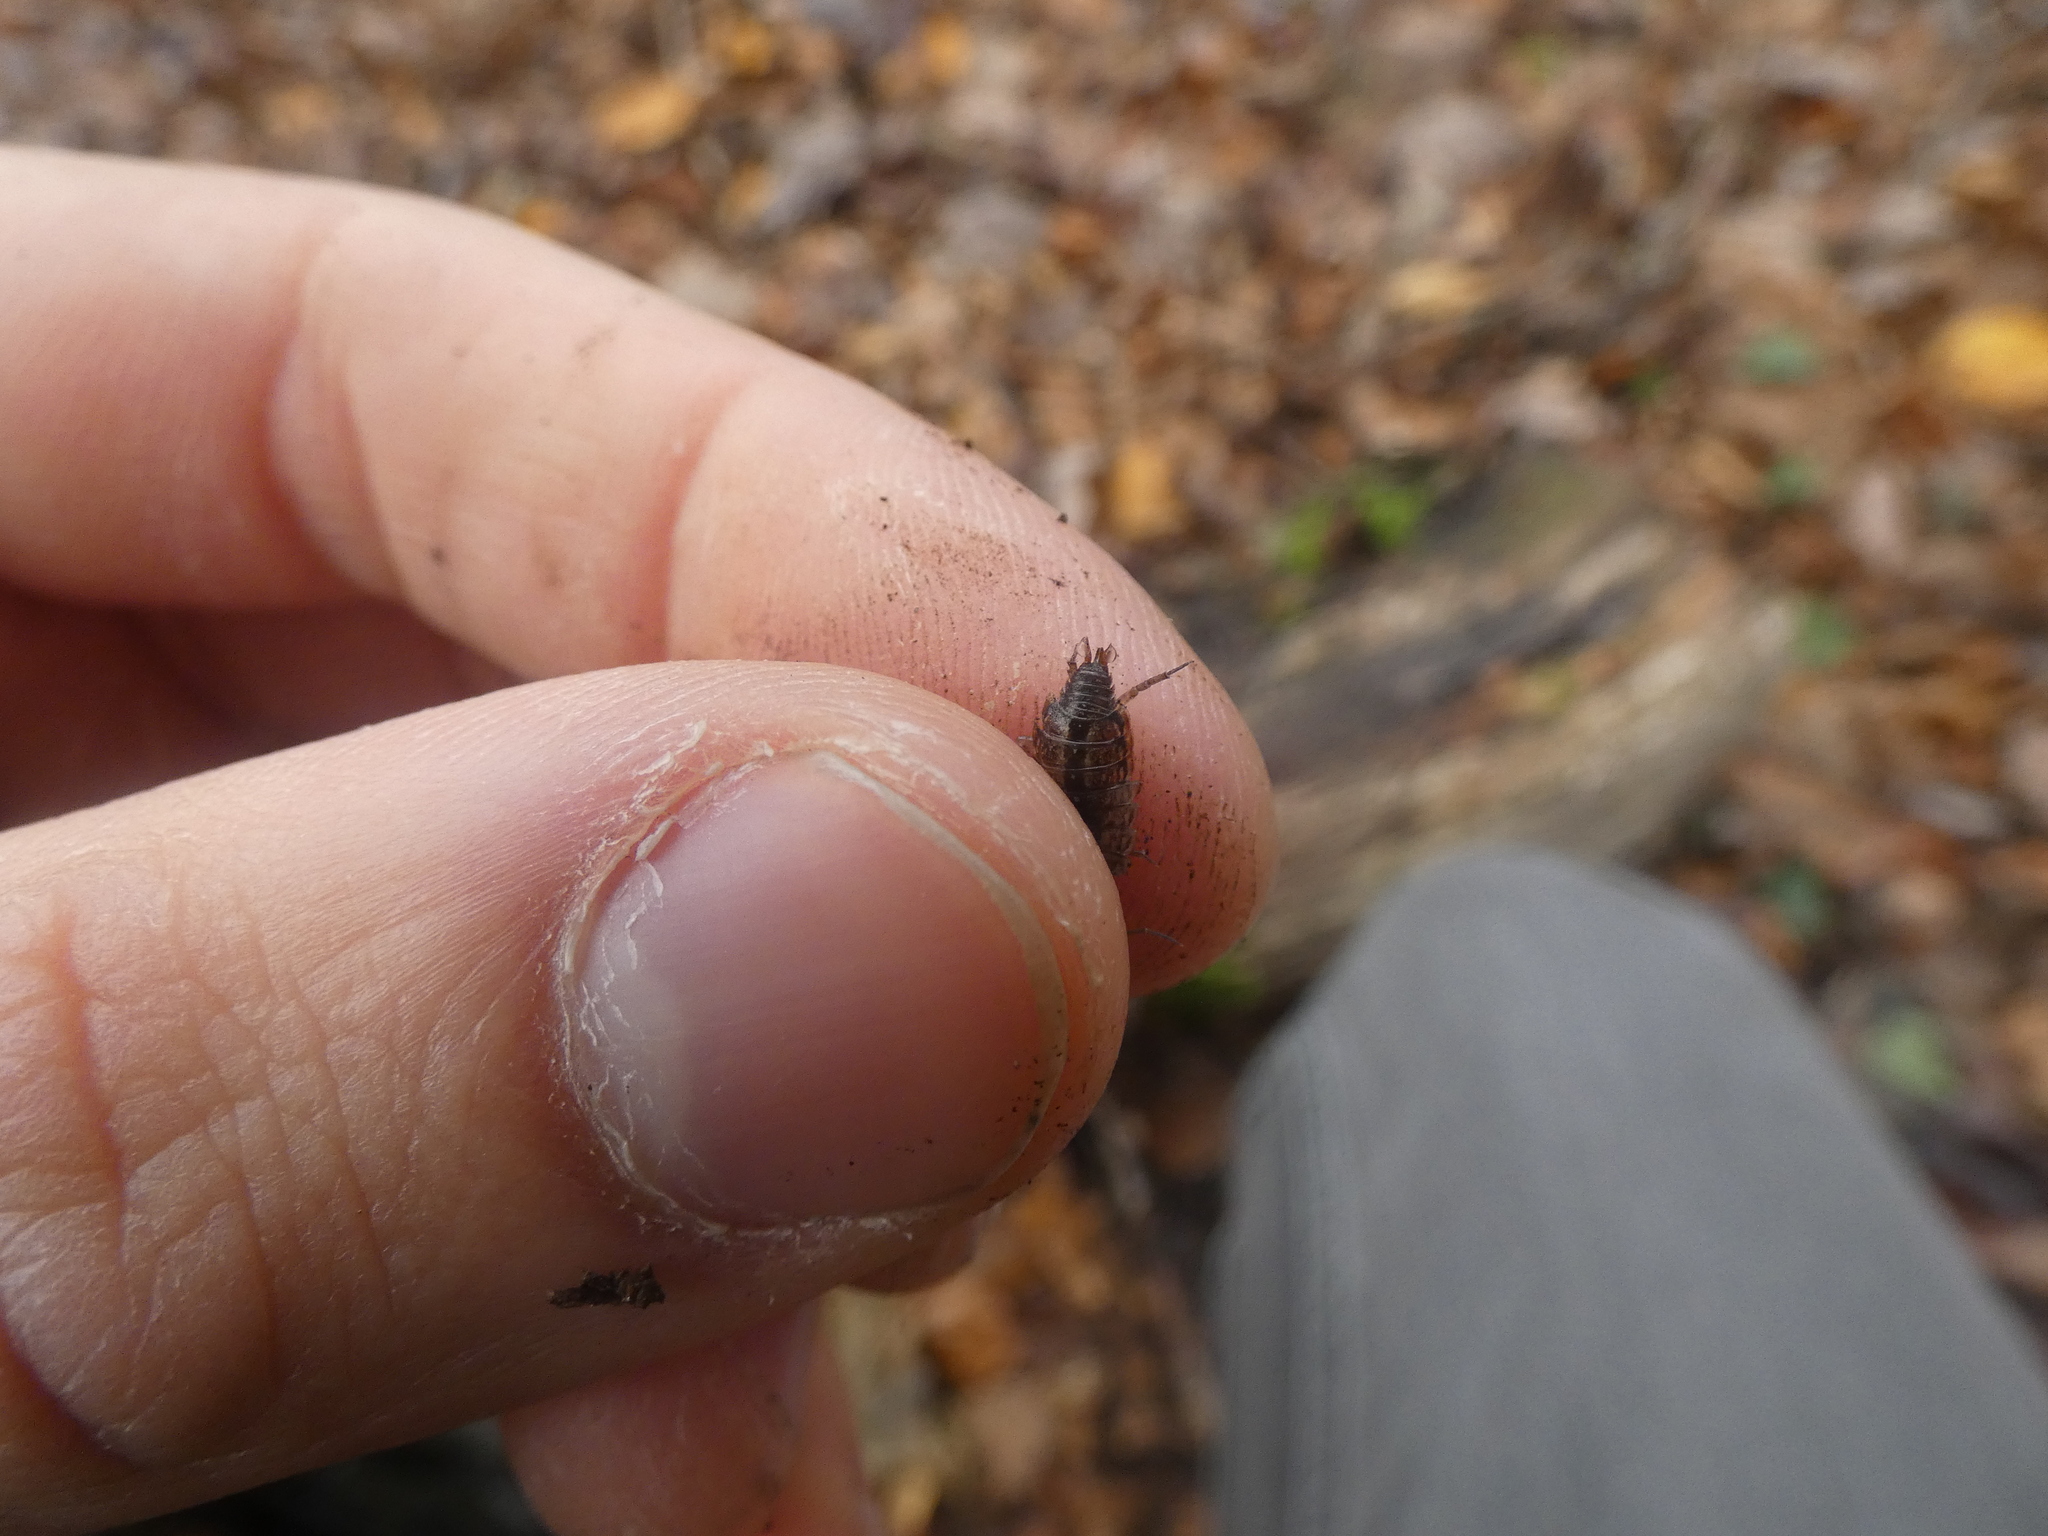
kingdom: Animalia
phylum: Arthropoda
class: Malacostraca
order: Isopoda
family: Philosciidae
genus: Philoscia
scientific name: Philoscia muscorum
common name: Common striped woodlouse
